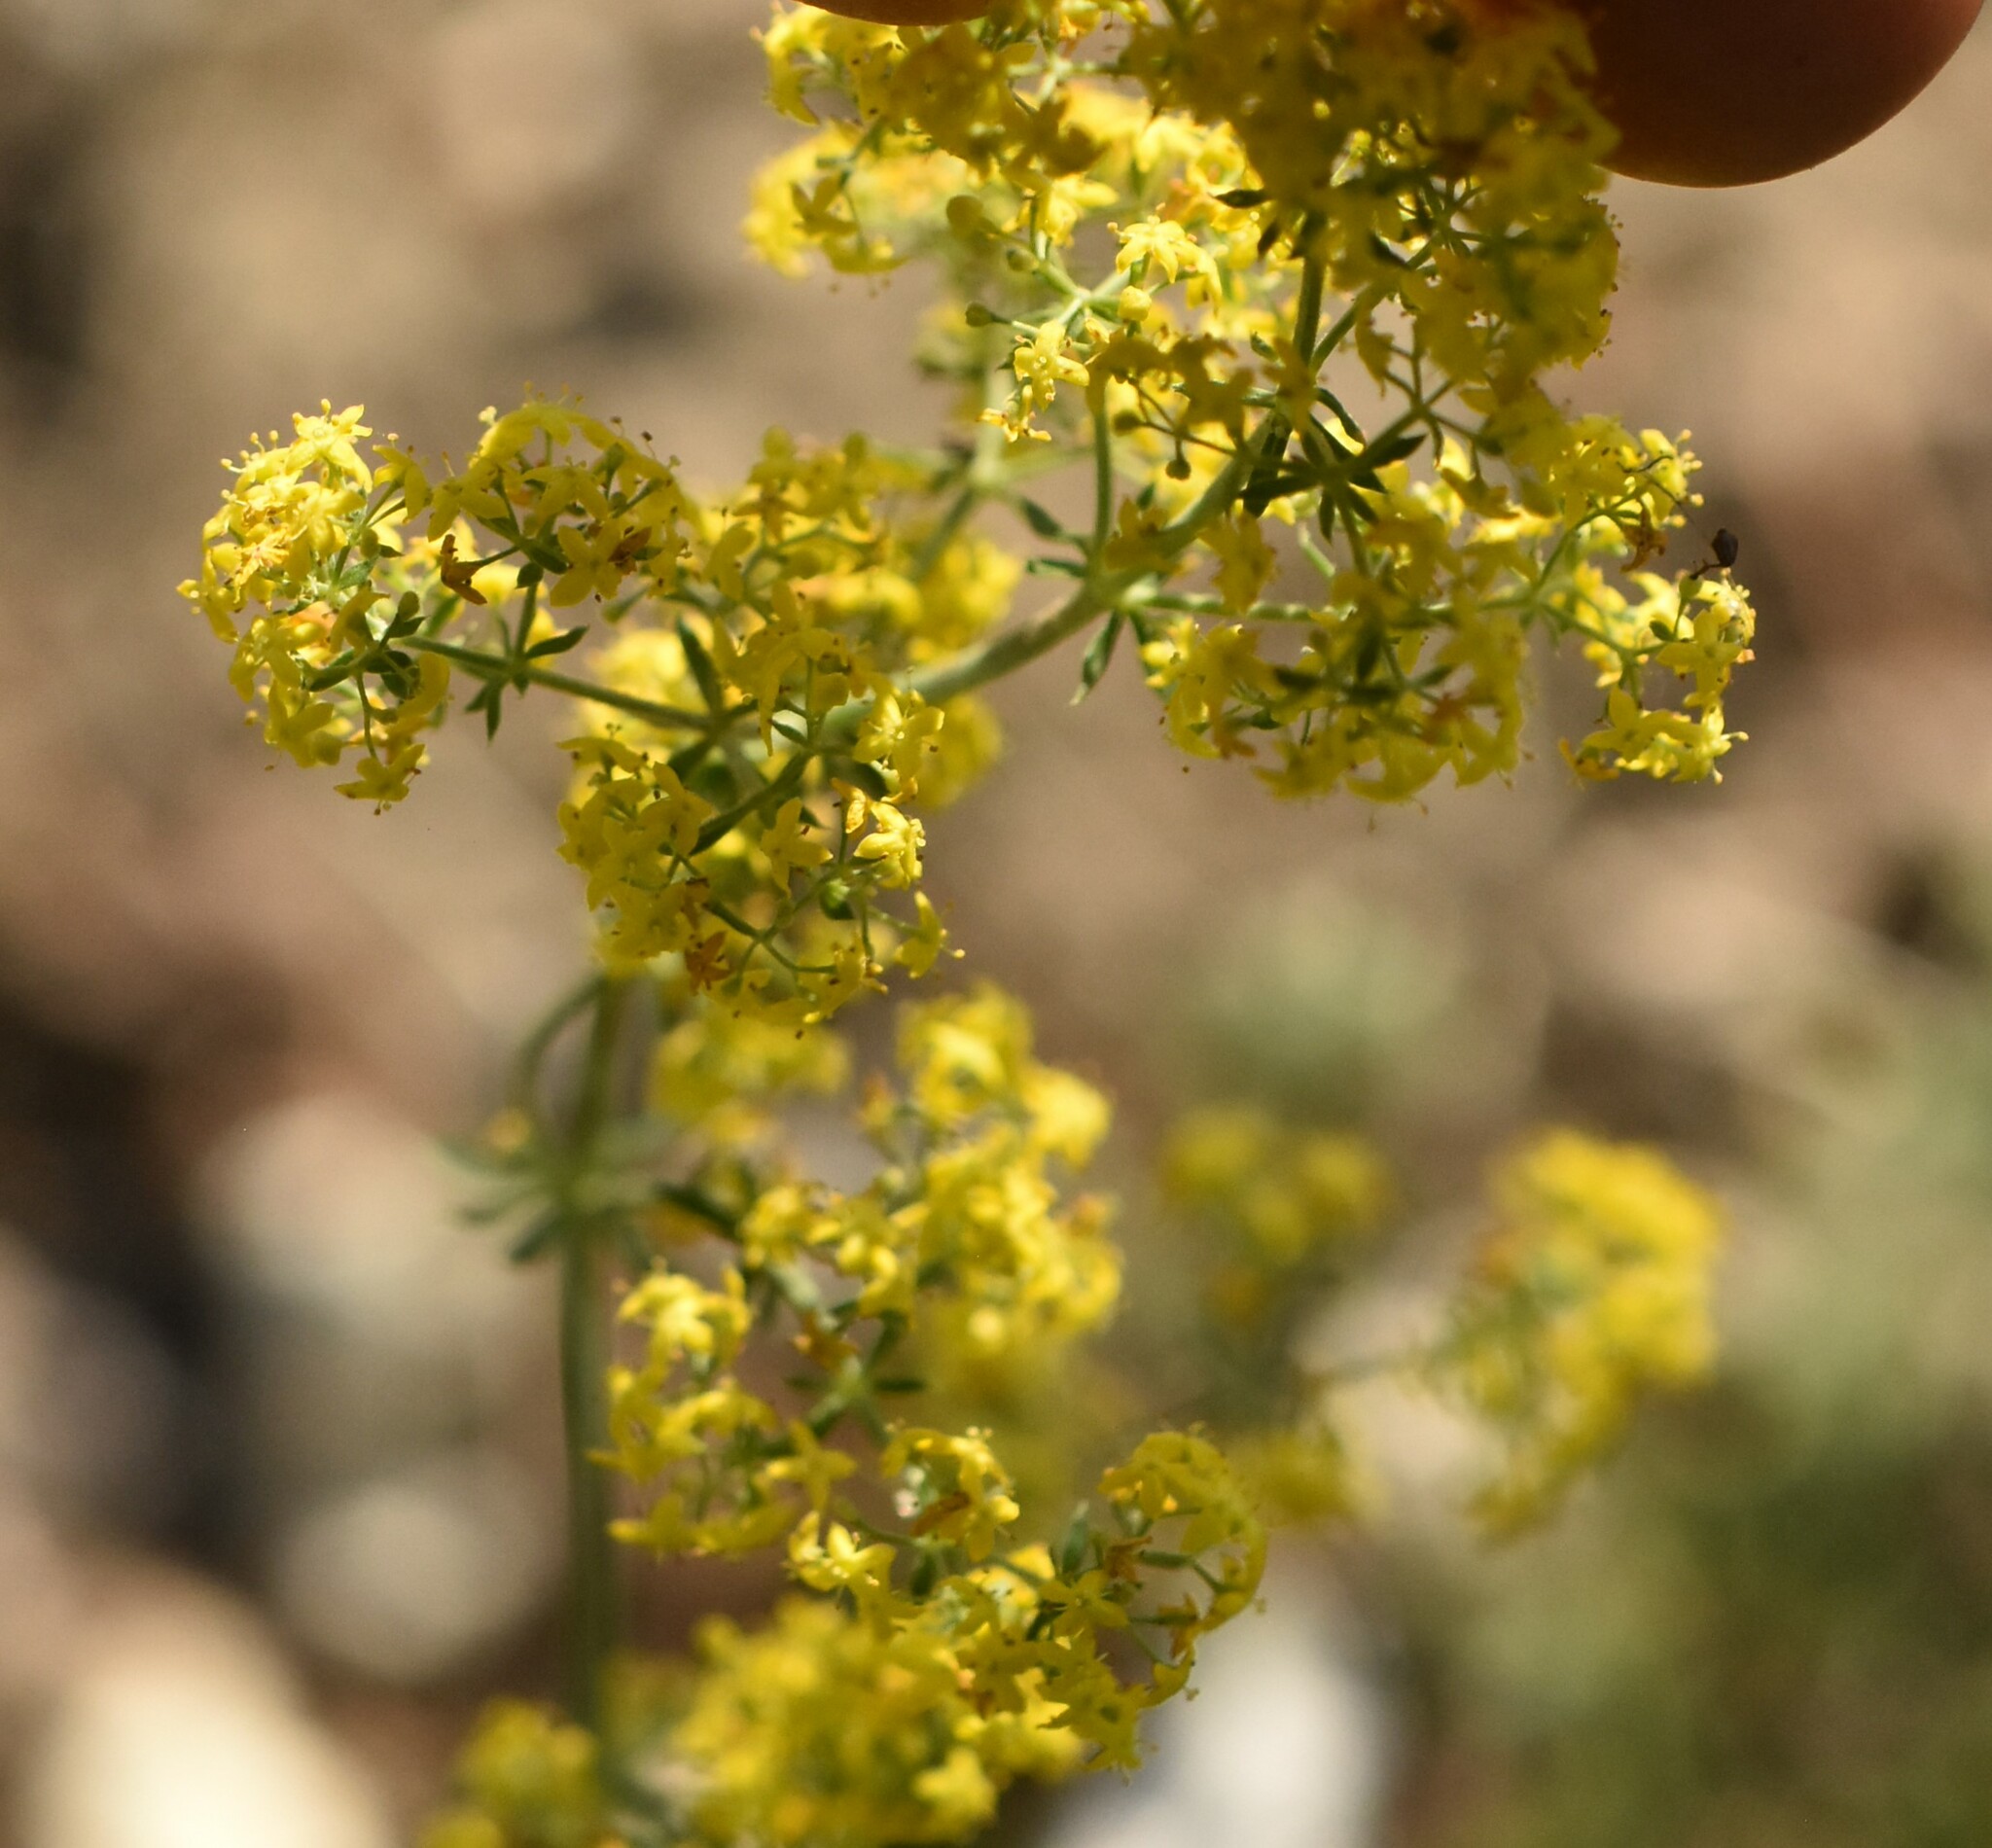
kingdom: Plantae
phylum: Tracheophyta
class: Magnoliopsida
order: Gentianales
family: Rubiaceae
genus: Galium
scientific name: Galium verum
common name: Lady's bedstraw
